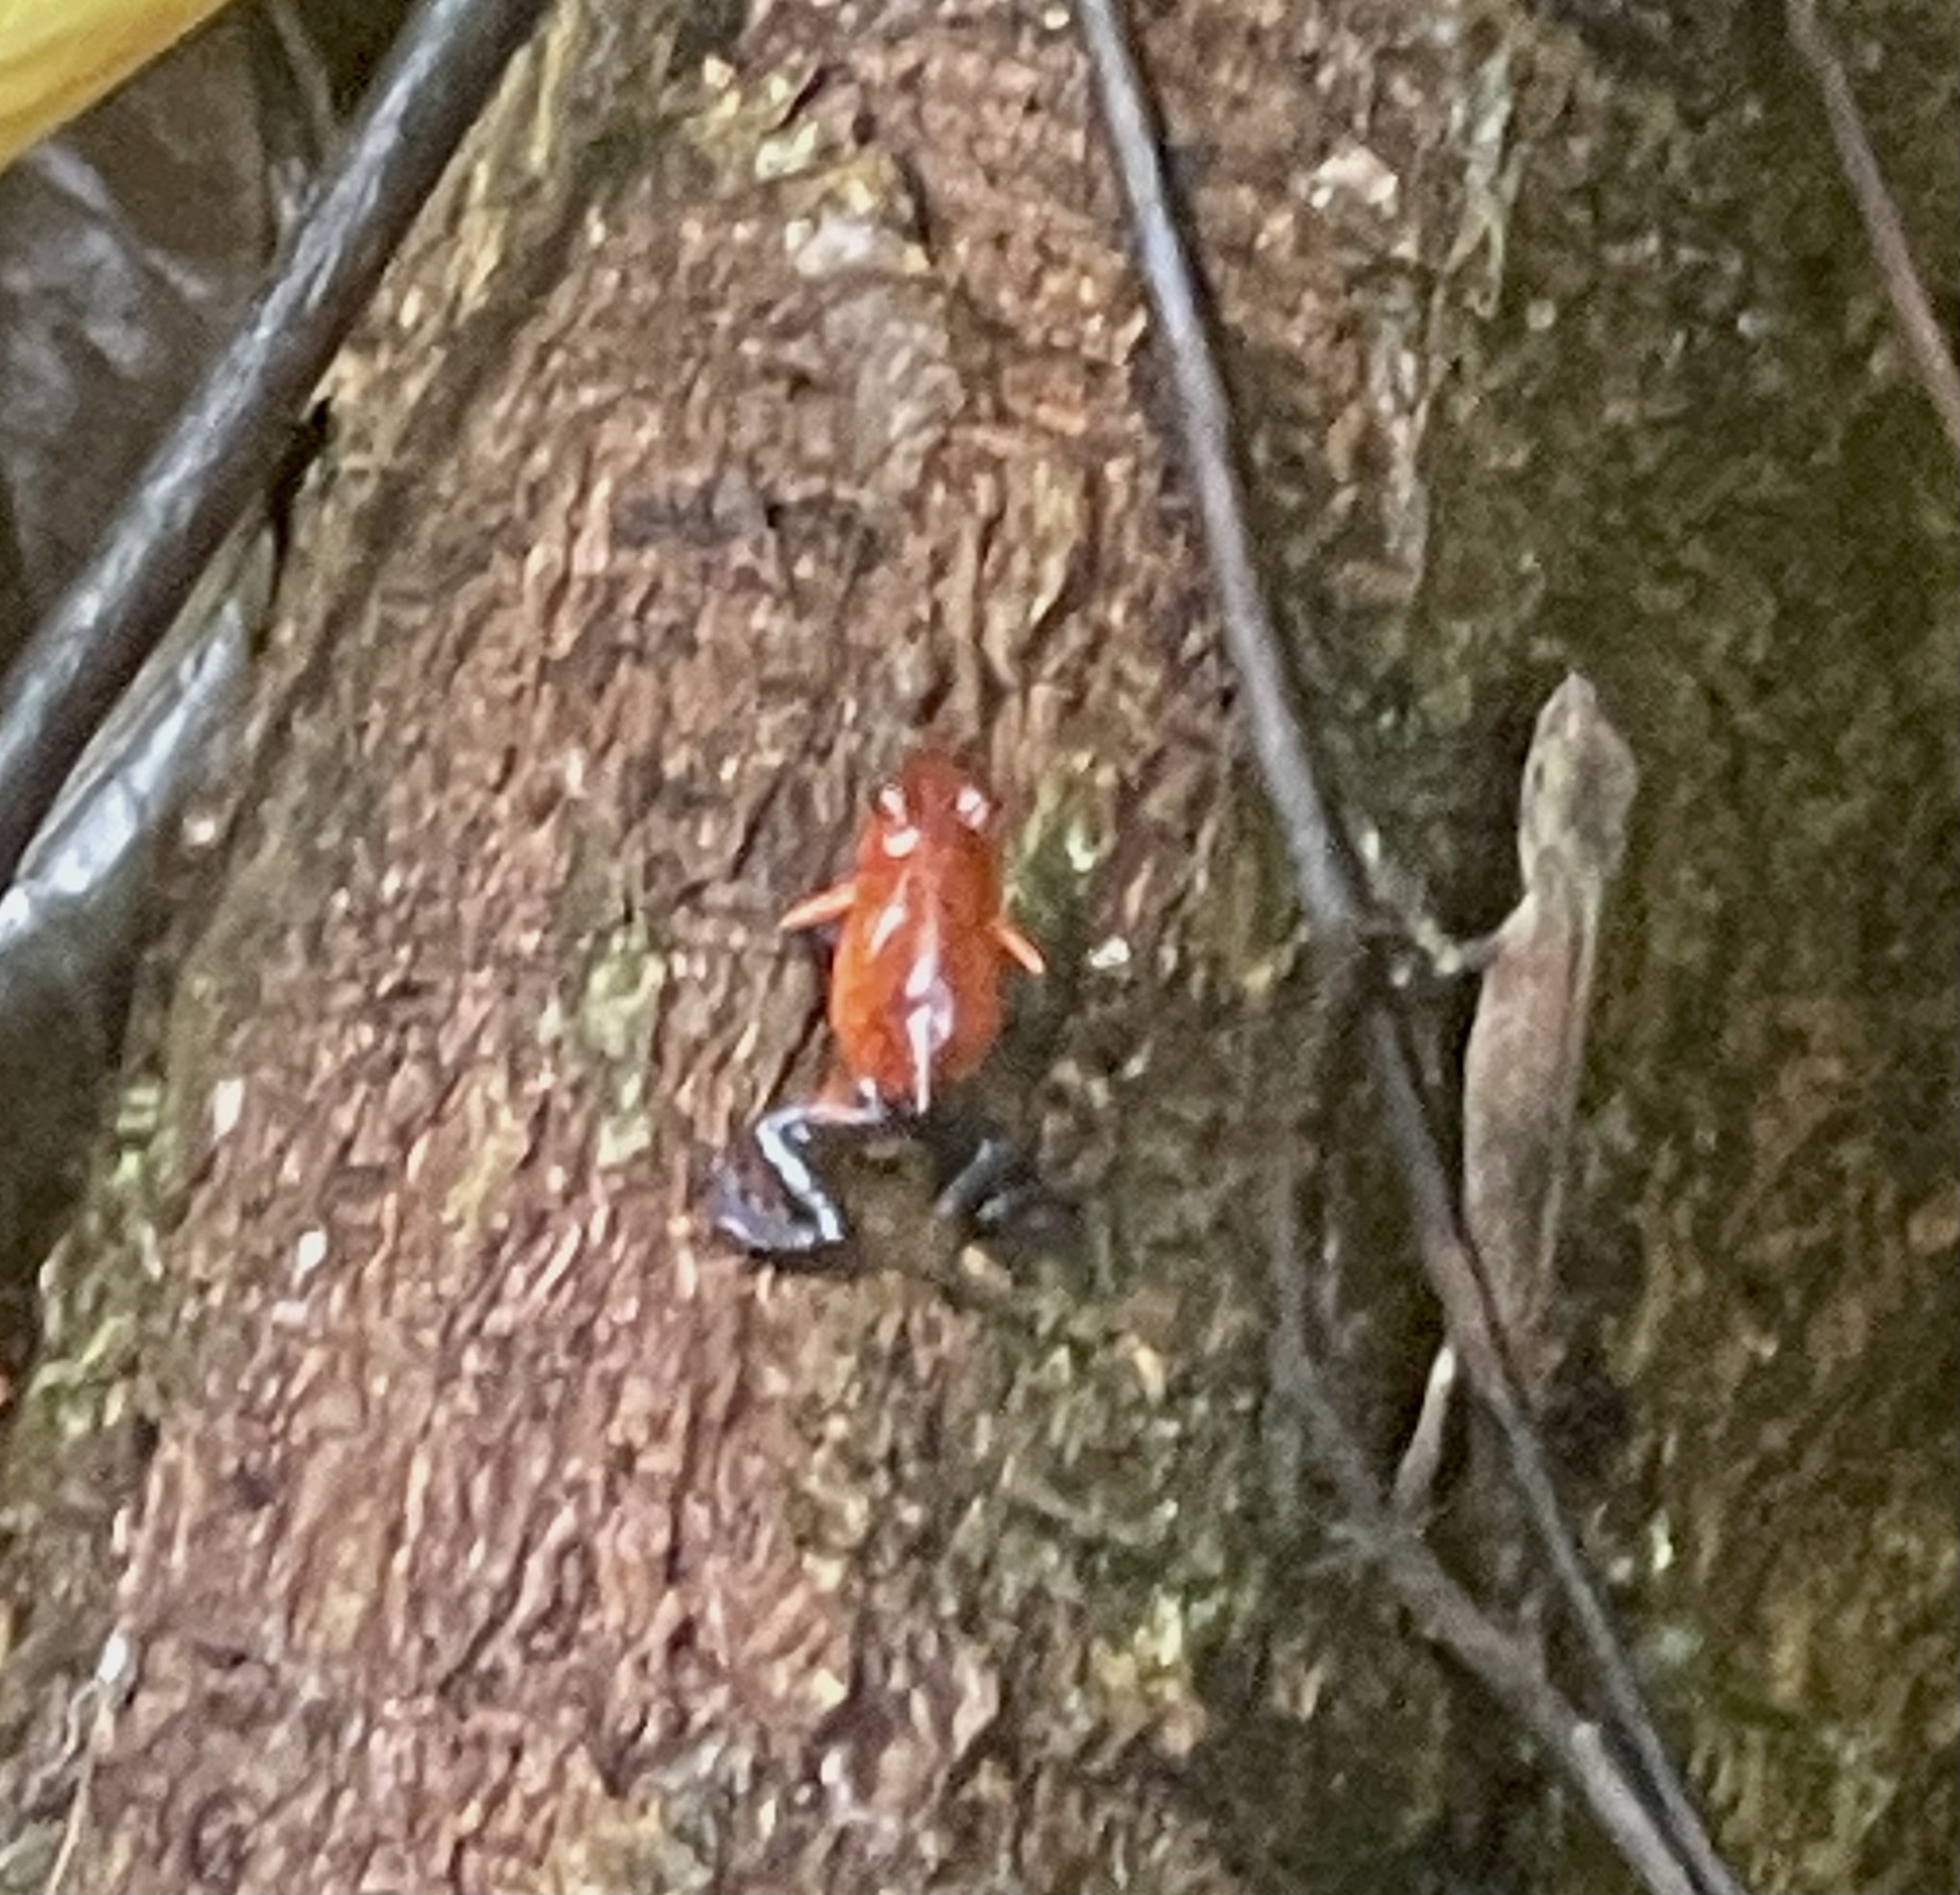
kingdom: Animalia
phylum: Chordata
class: Amphibia
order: Anura
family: Dendrobatidae
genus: Oophaga
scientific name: Oophaga pumilio
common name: Flaming poison frog
